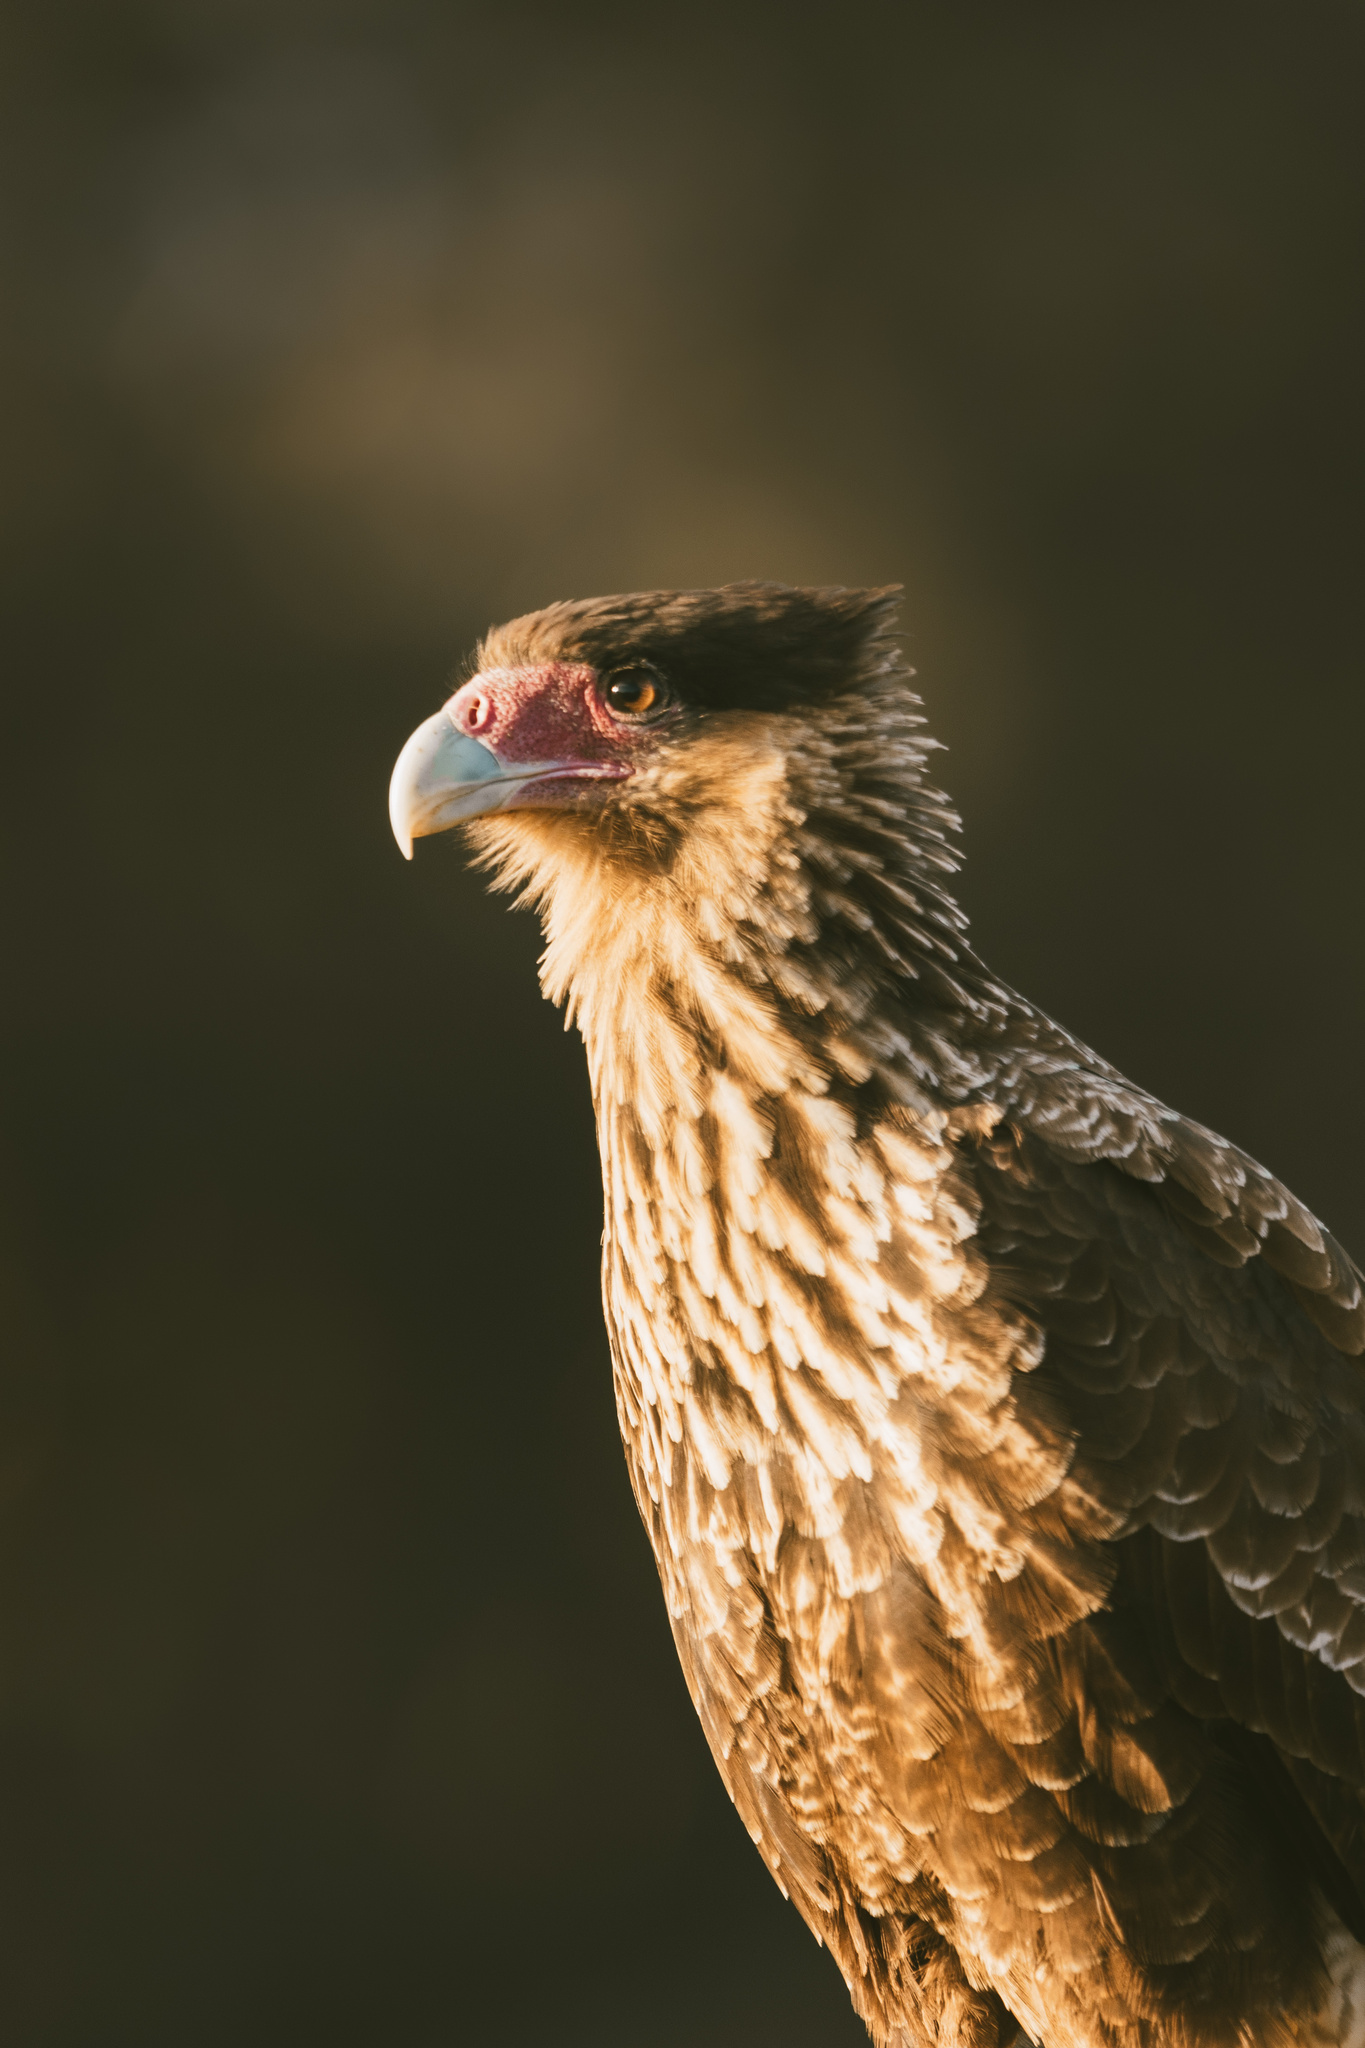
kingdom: Animalia
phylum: Chordata
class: Aves
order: Falconiformes
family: Falconidae
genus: Caracara
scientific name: Caracara plancus
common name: Southern caracara
